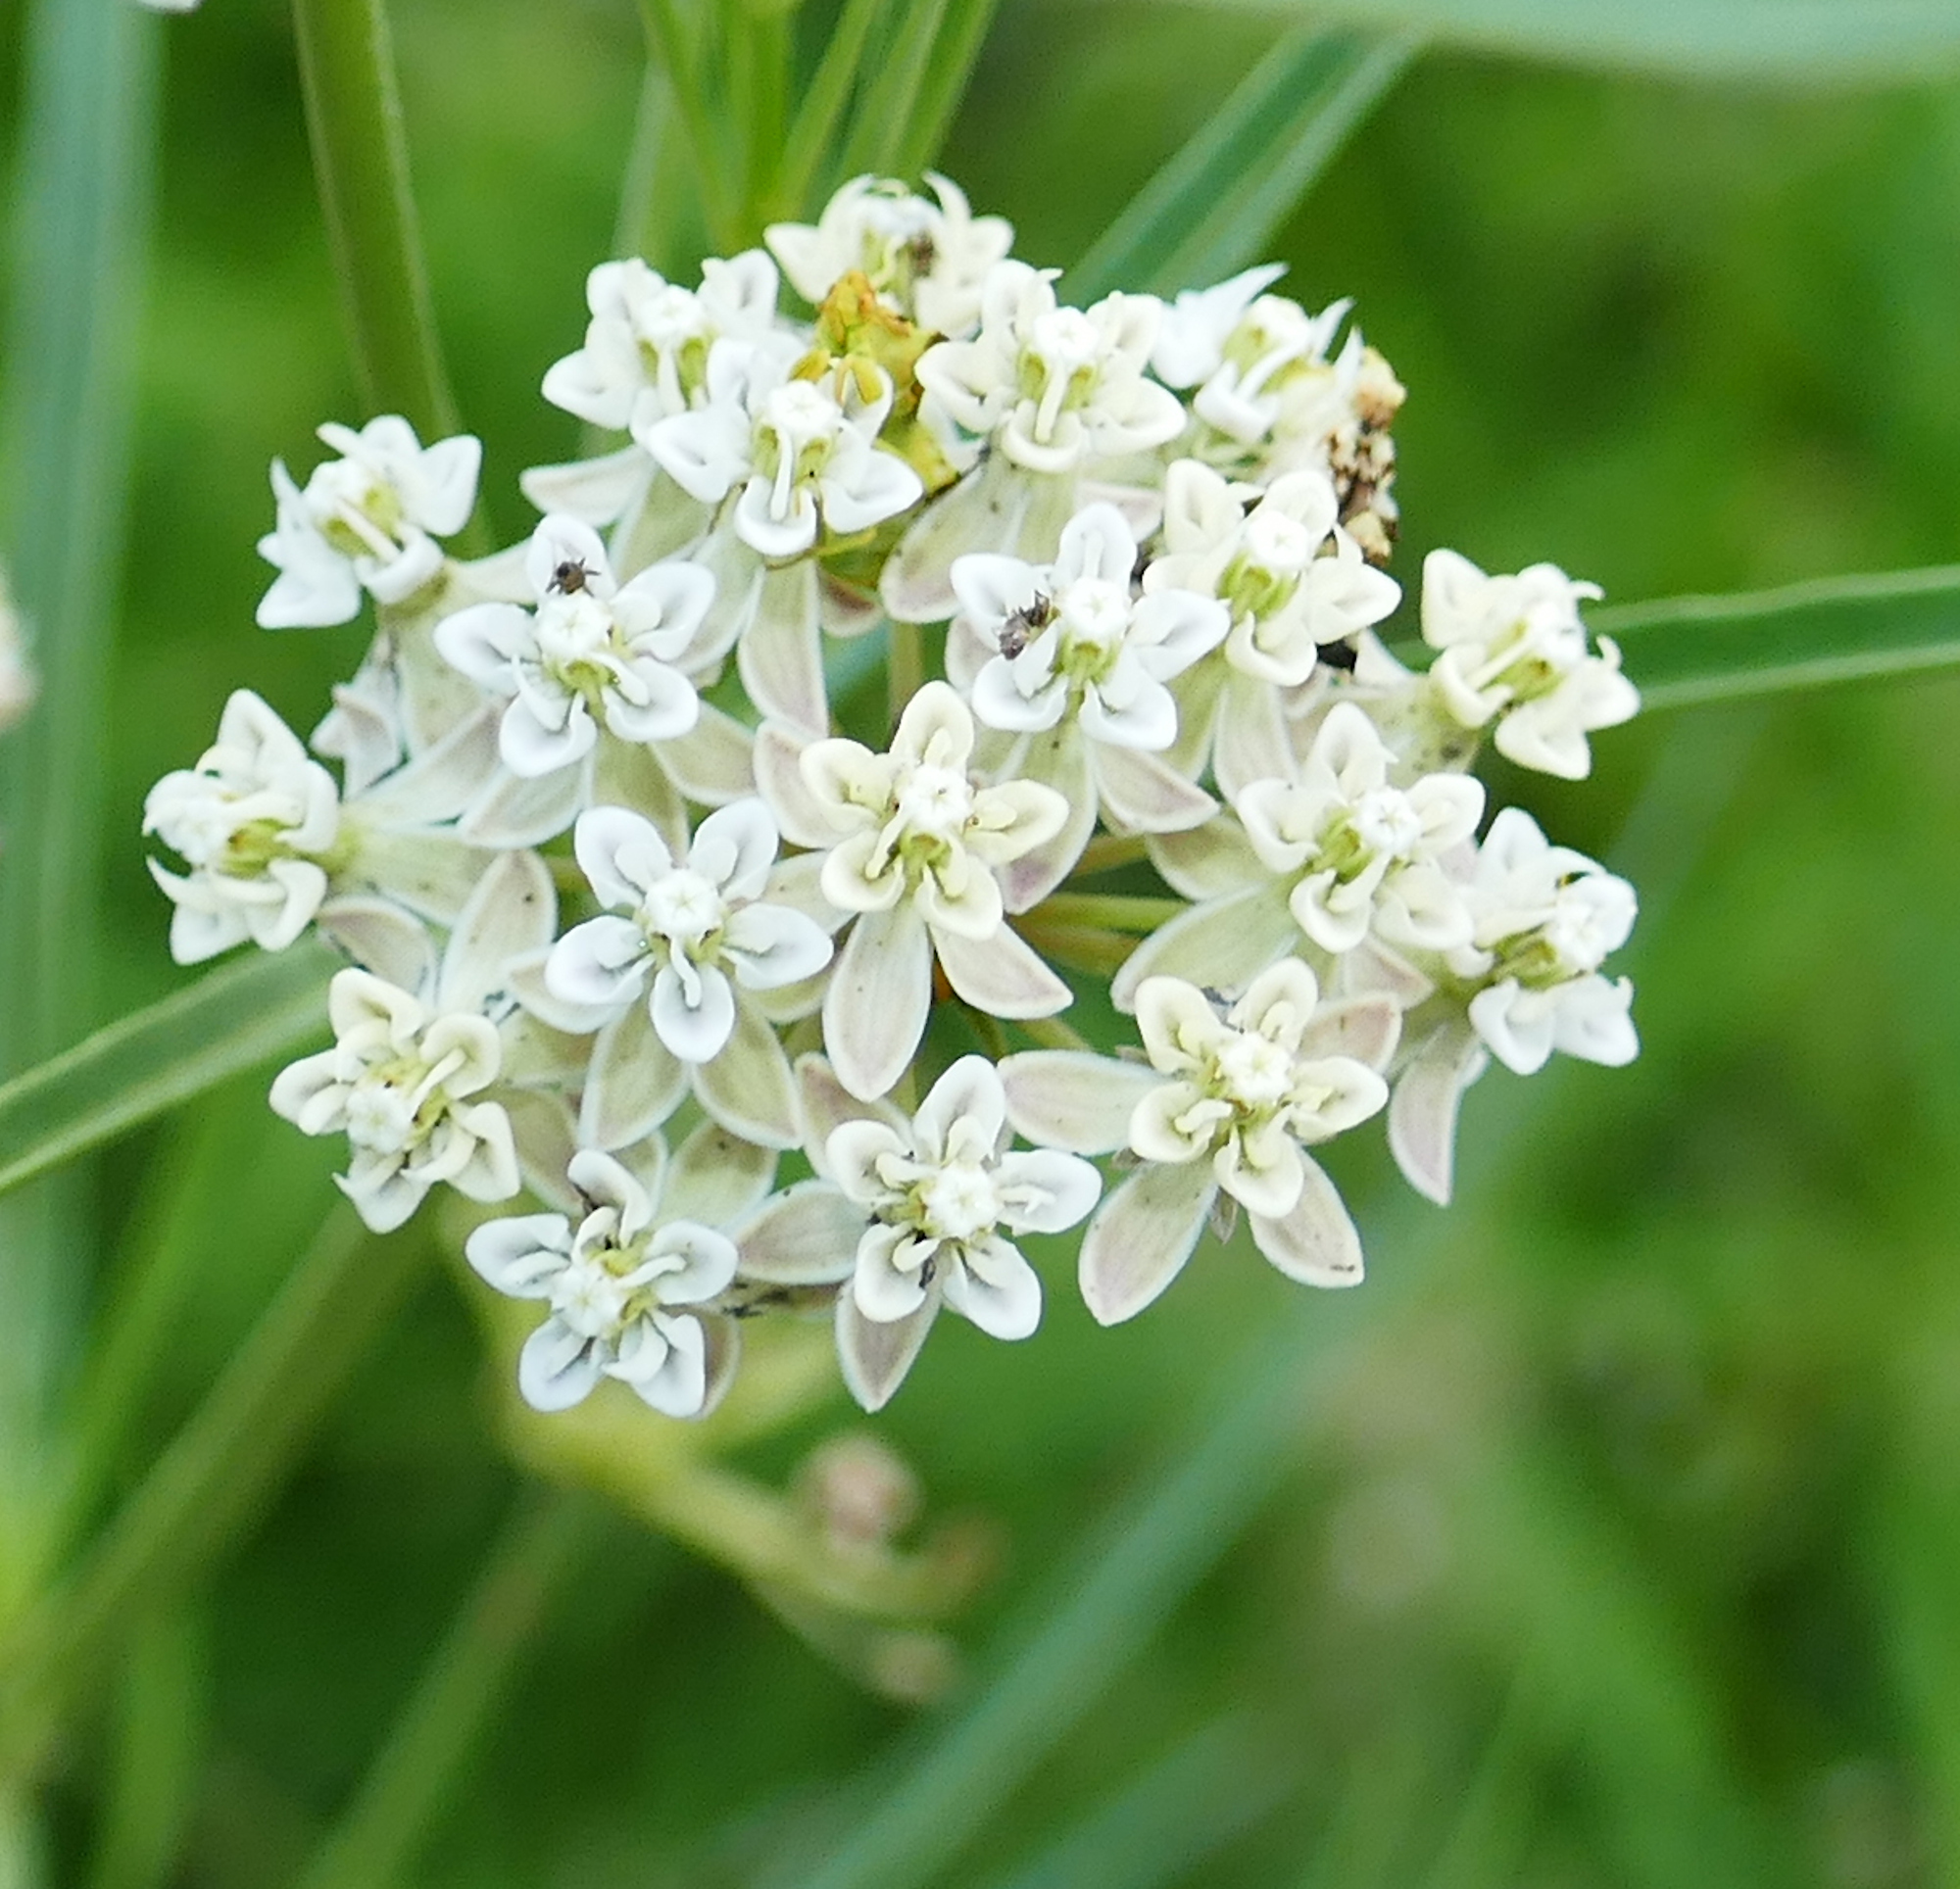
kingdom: Plantae
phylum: Tracheophyta
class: Magnoliopsida
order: Gentianales
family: Apocynaceae
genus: Asclepias
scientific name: Asclepias subverticillata
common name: Horsetail milkweed
